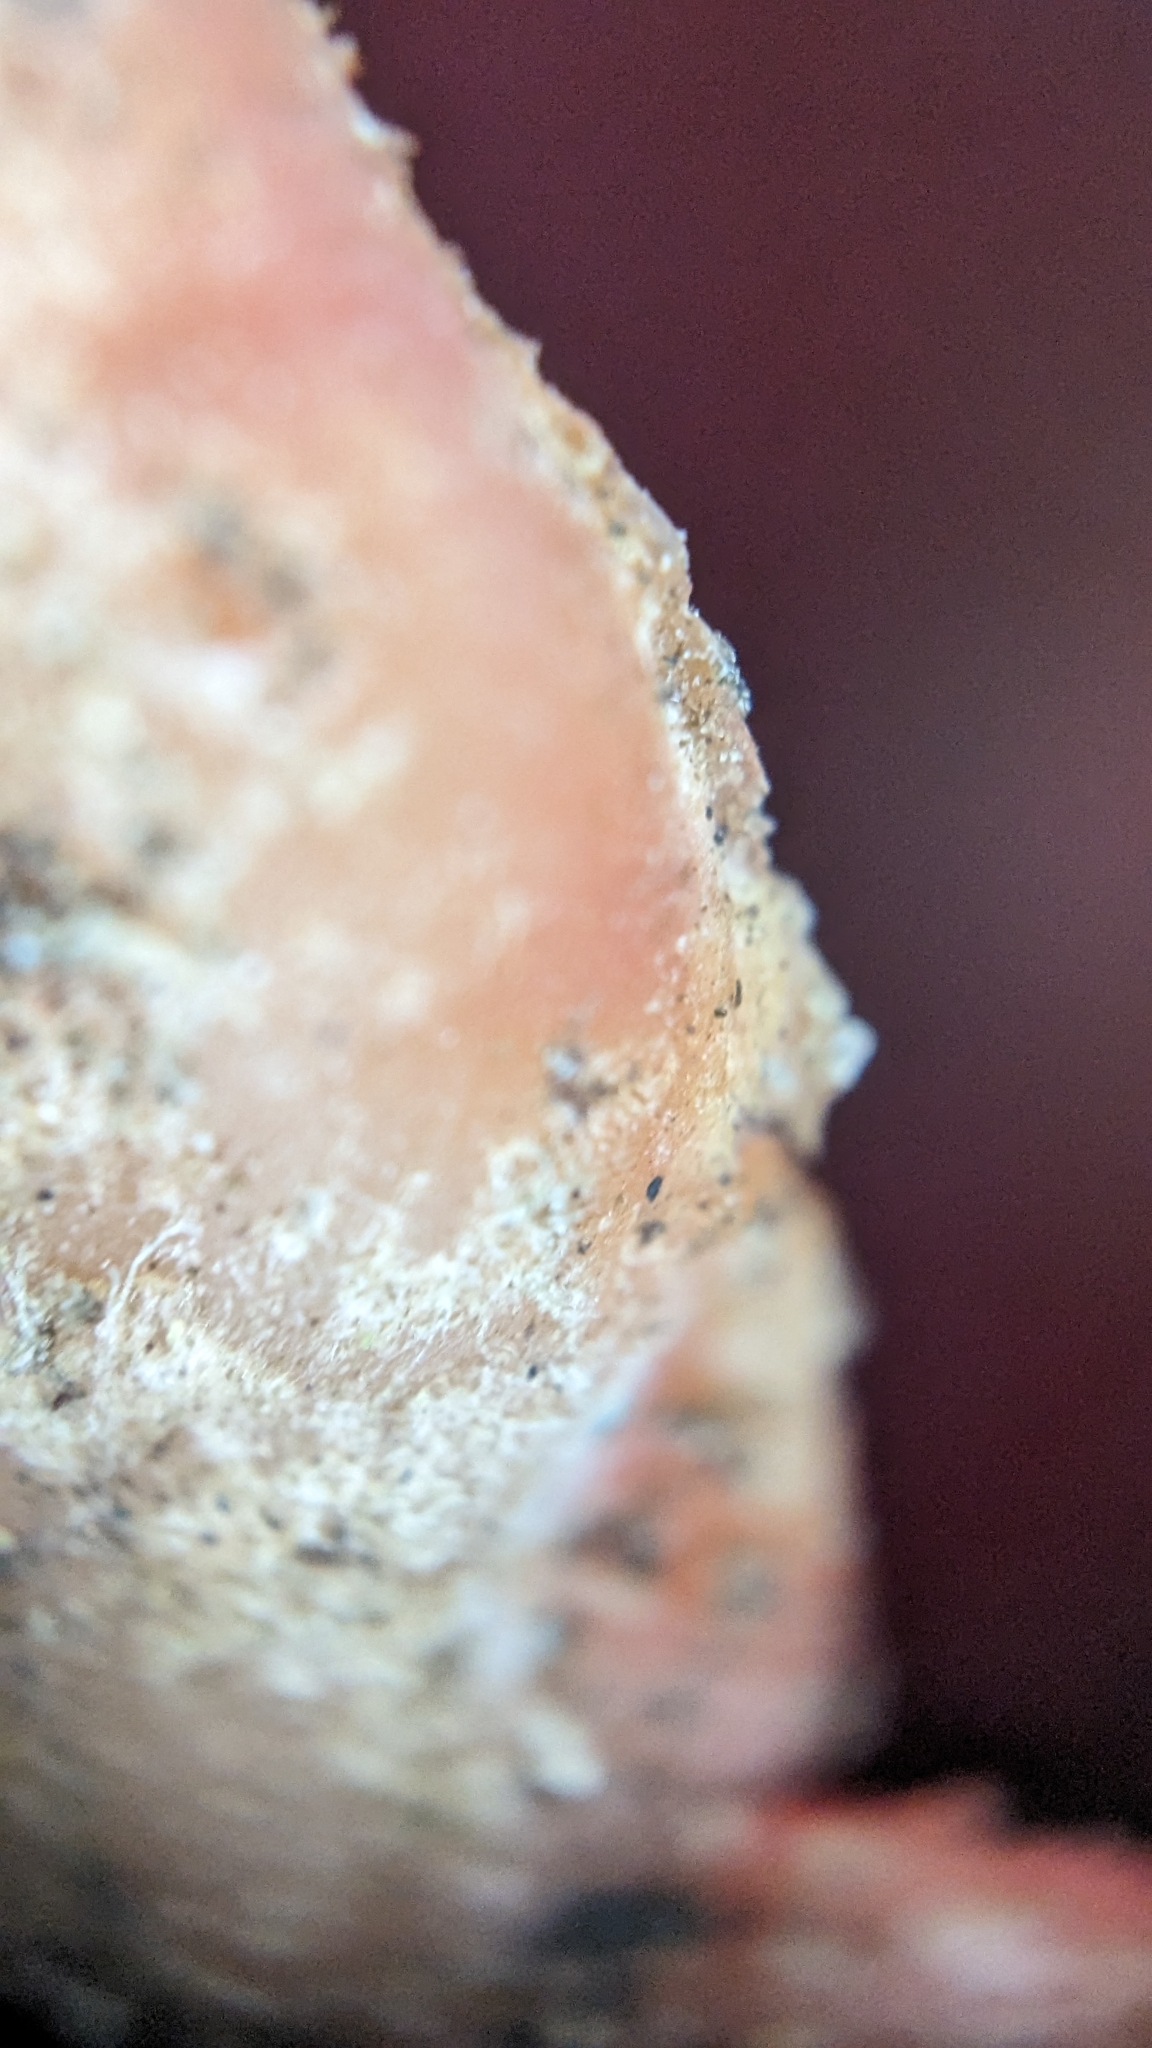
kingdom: Fungi
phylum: Ascomycota
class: Pezizomycetes
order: Pezizales
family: Sarcoscyphaceae
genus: Sarcoscypha
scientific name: Sarcoscypha
